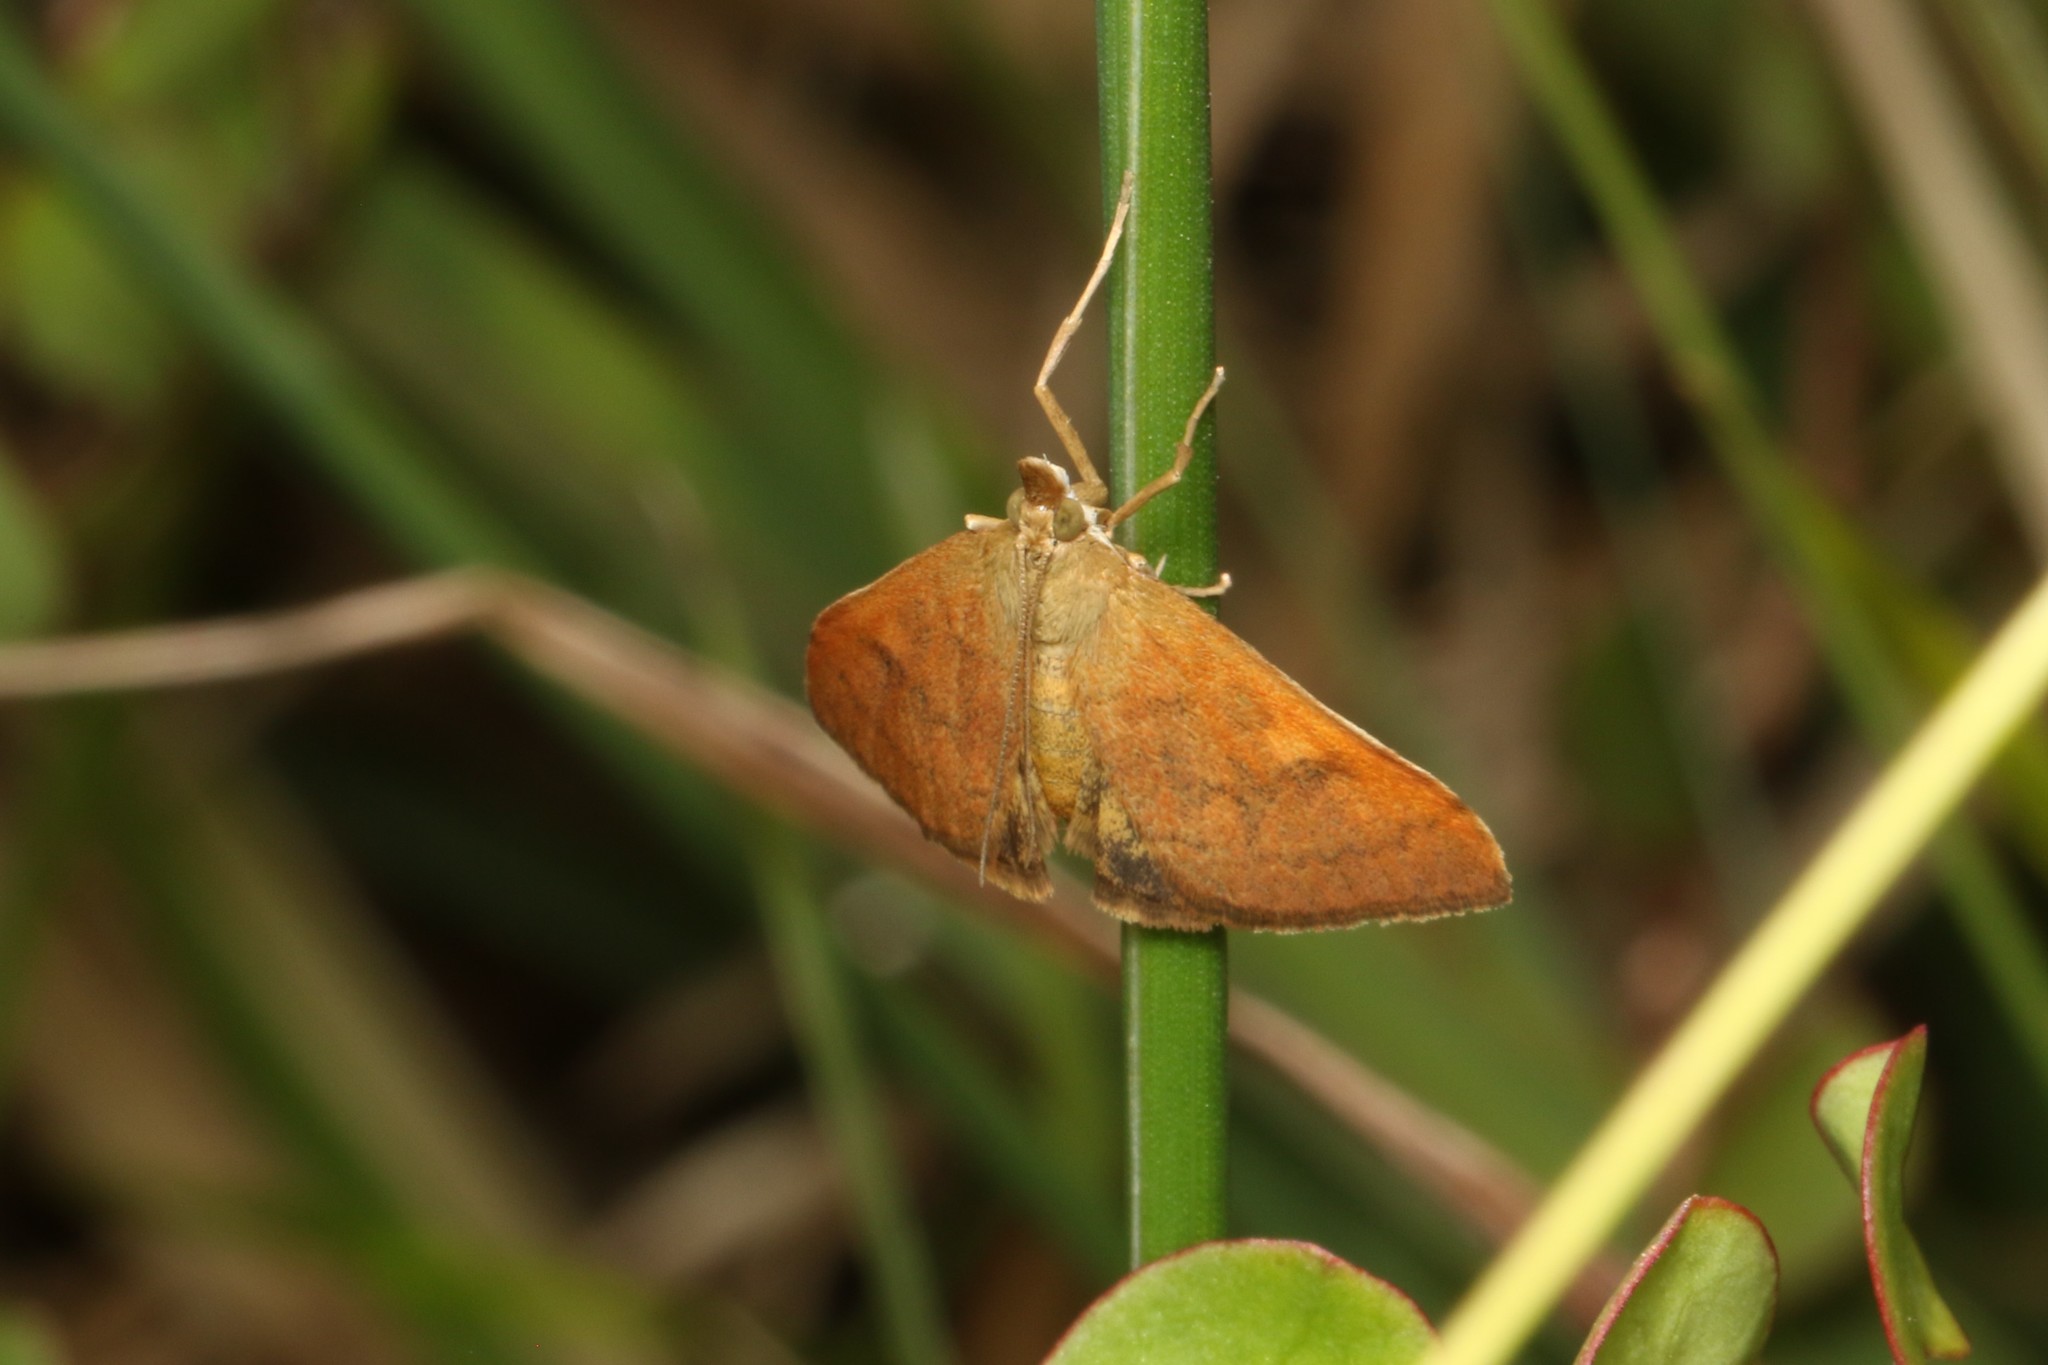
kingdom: Animalia
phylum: Arthropoda
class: Insecta
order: Lepidoptera
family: Crambidae
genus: Udea
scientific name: Udea Mnesictena flavidalis
